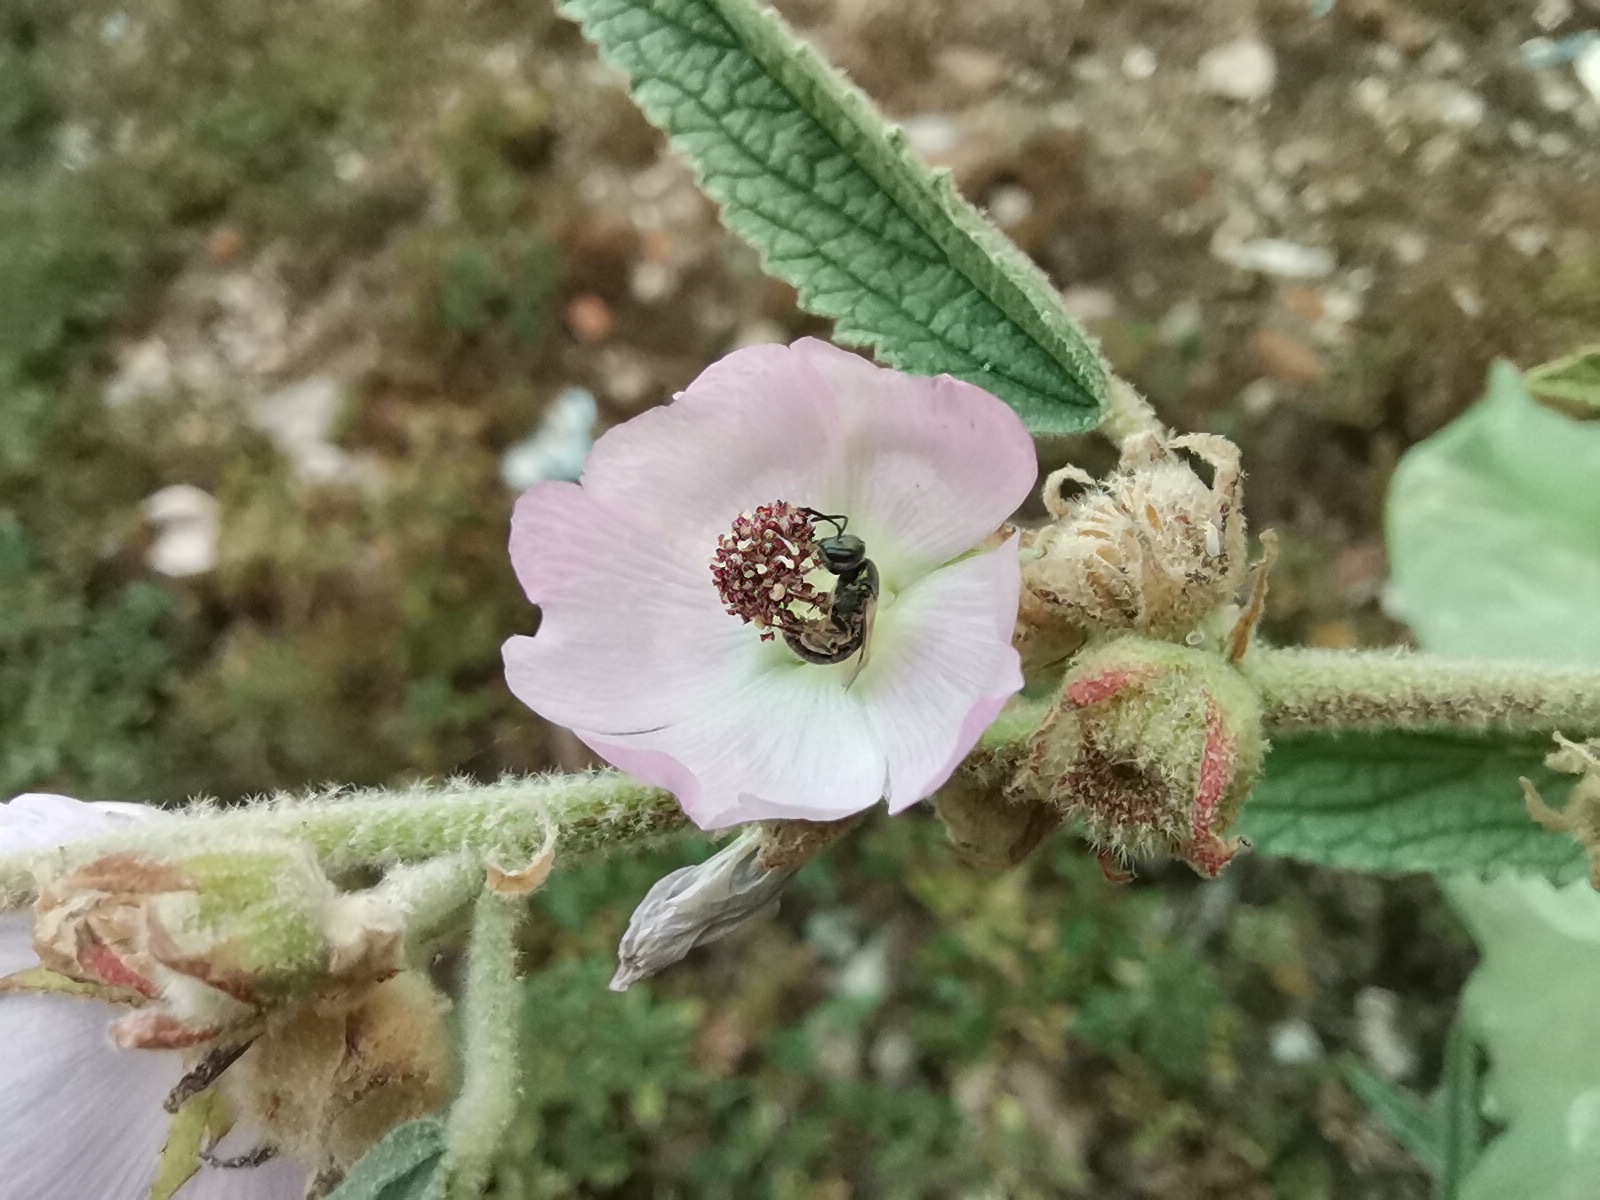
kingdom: Plantae
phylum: Tracheophyta
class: Magnoliopsida
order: Malvales
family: Malvaceae
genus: Sphaeralcea
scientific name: Sphaeralcea angustifolia
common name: Copper globe-mallow
